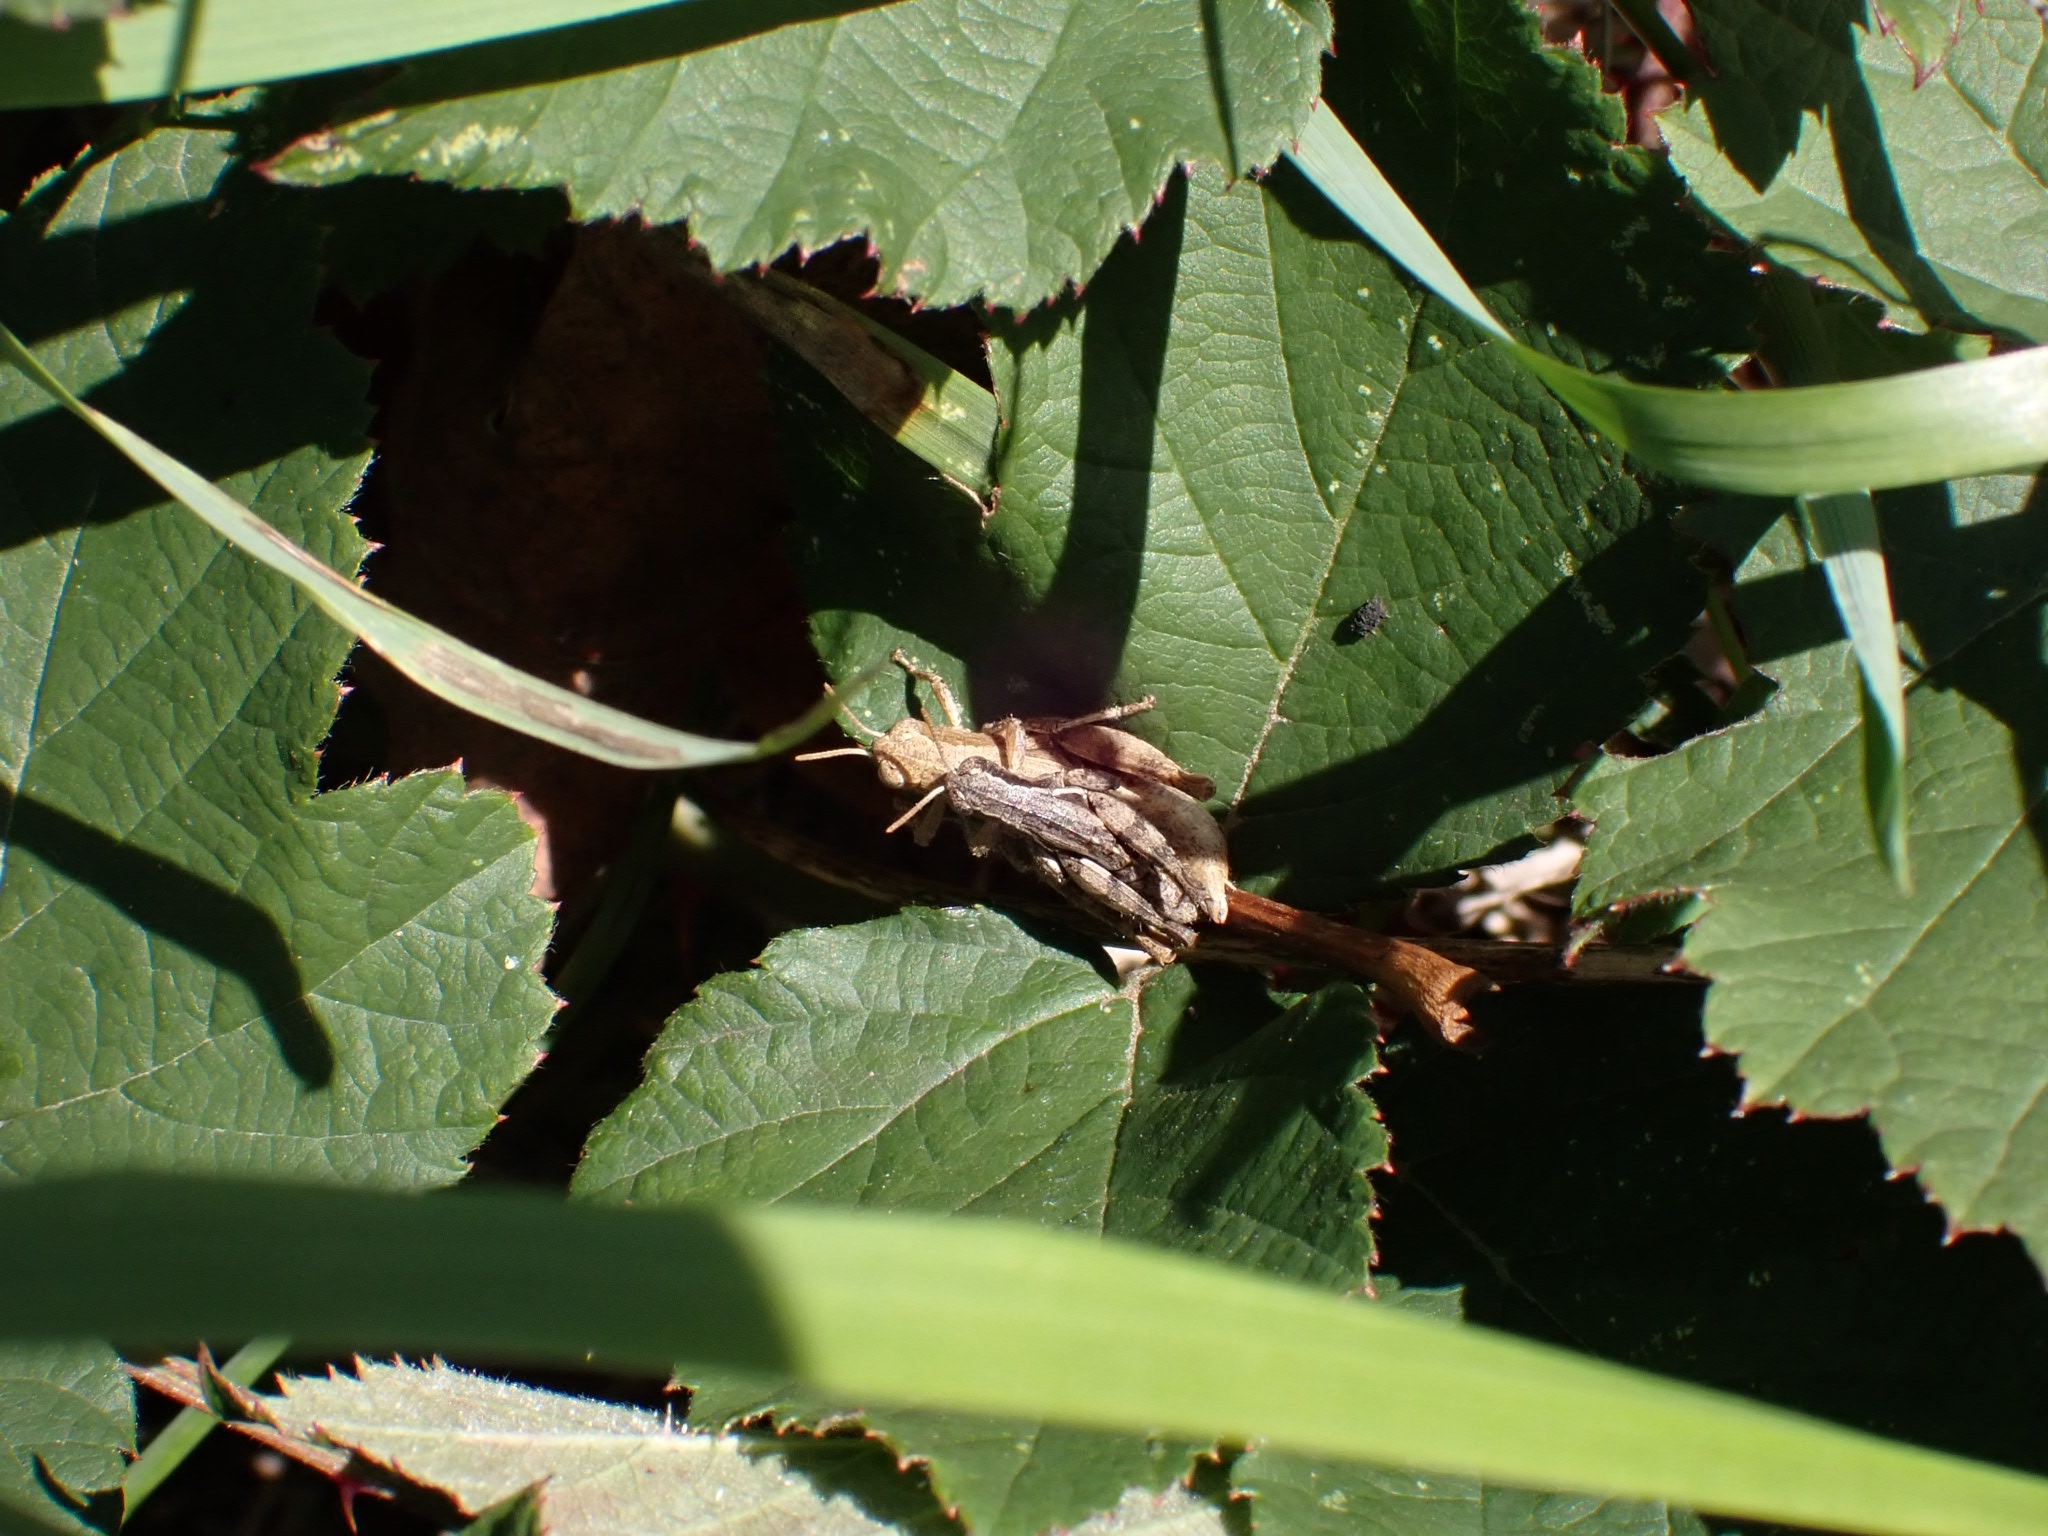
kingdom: Animalia
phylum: Arthropoda
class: Insecta
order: Orthoptera
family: Acrididae
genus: Pezotettix
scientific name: Pezotettix giornae
